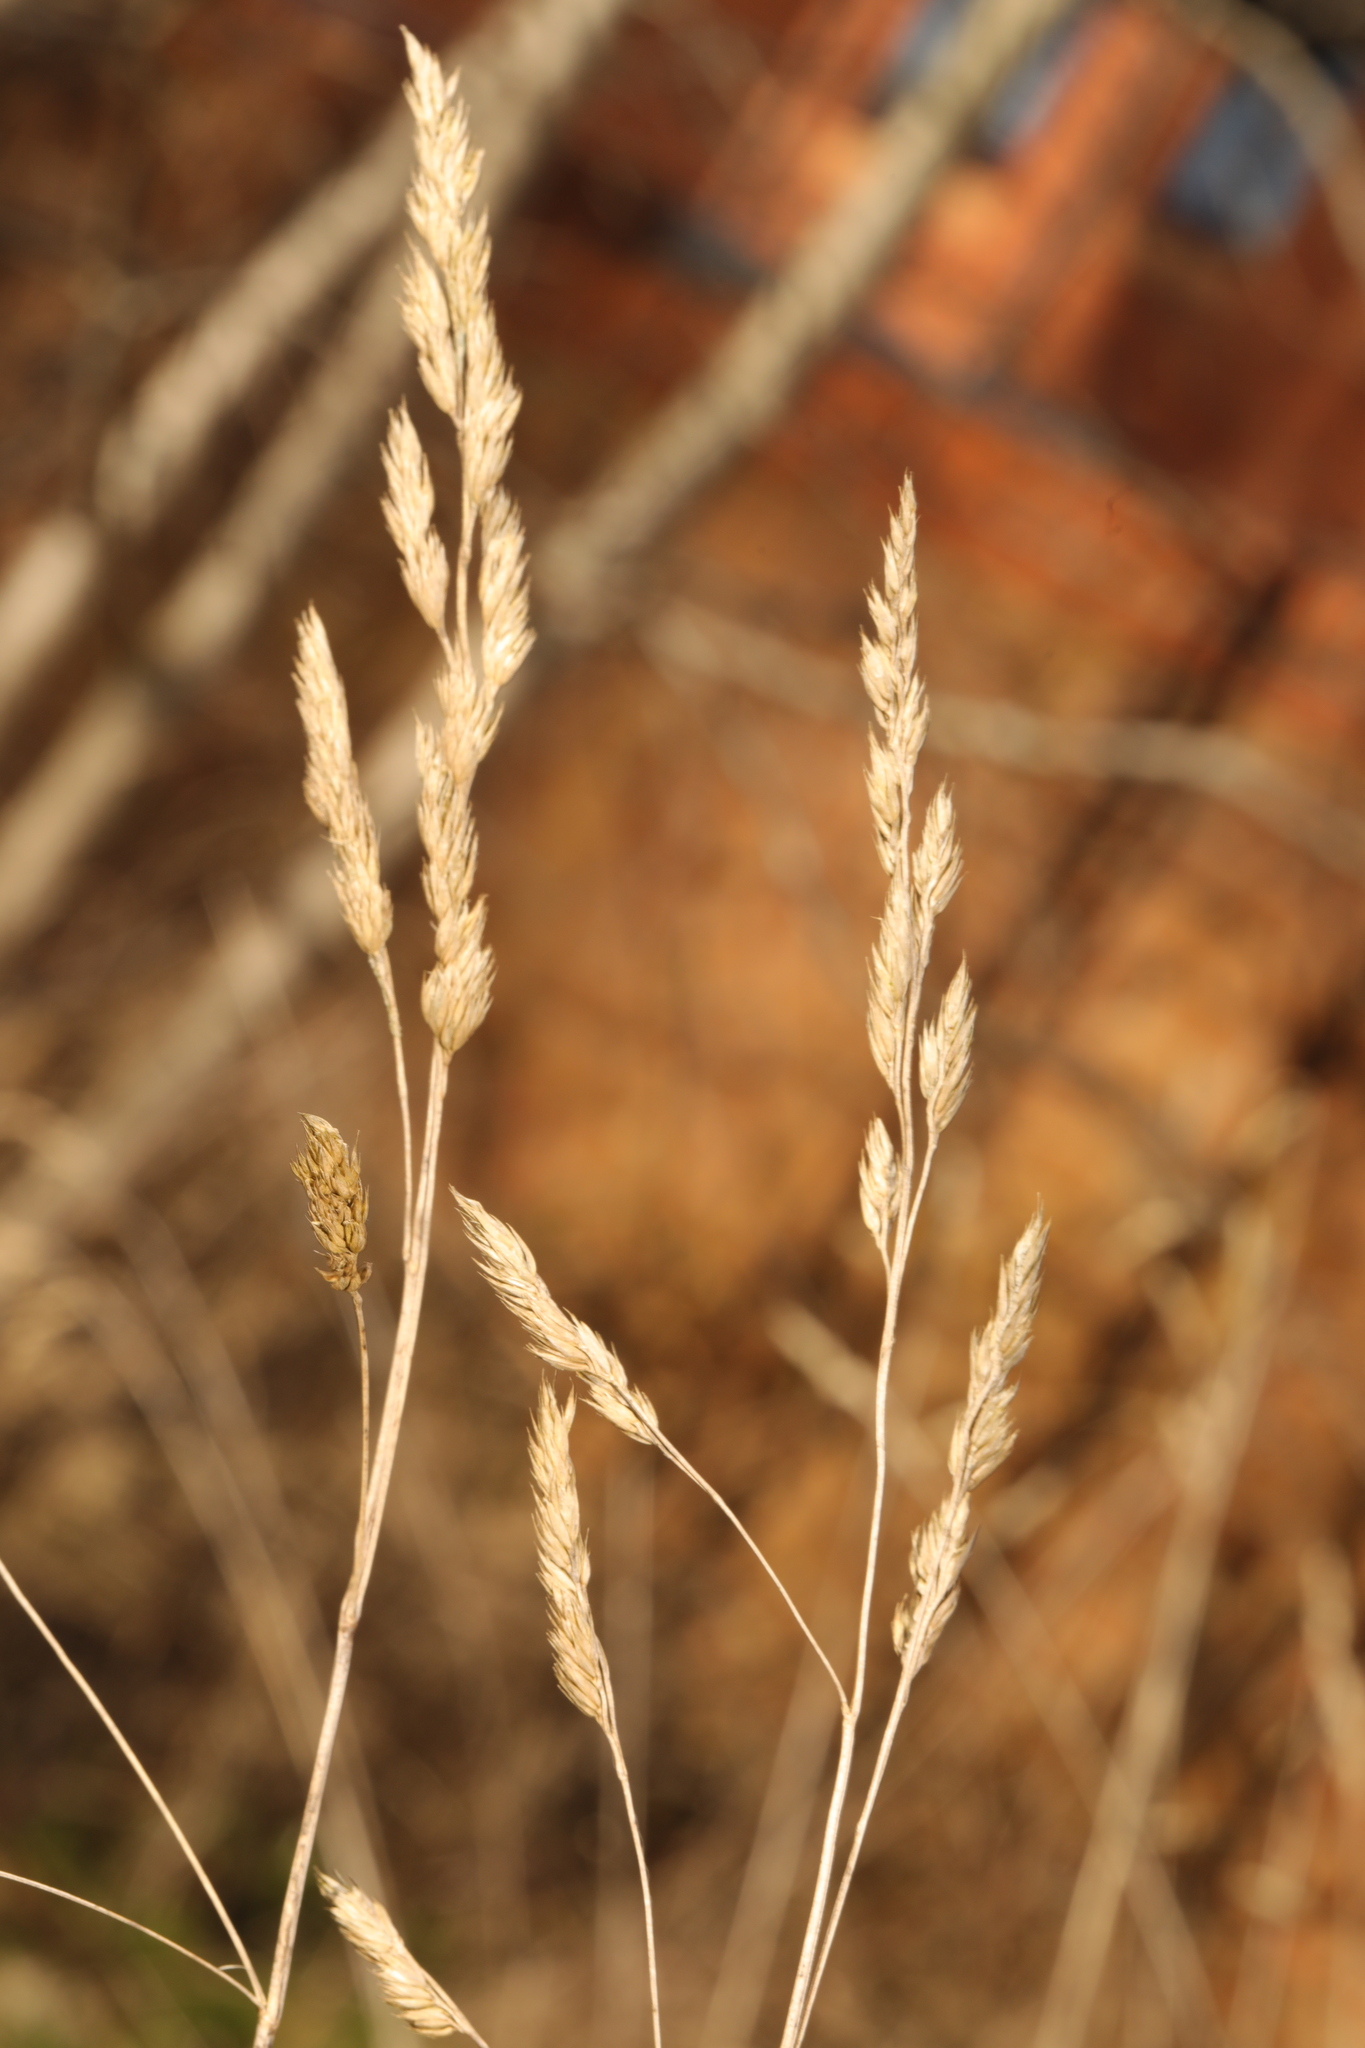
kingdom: Plantae
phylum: Tracheophyta
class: Liliopsida
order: Poales
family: Poaceae
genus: Dactylis
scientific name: Dactylis glomerata
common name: Orchardgrass
